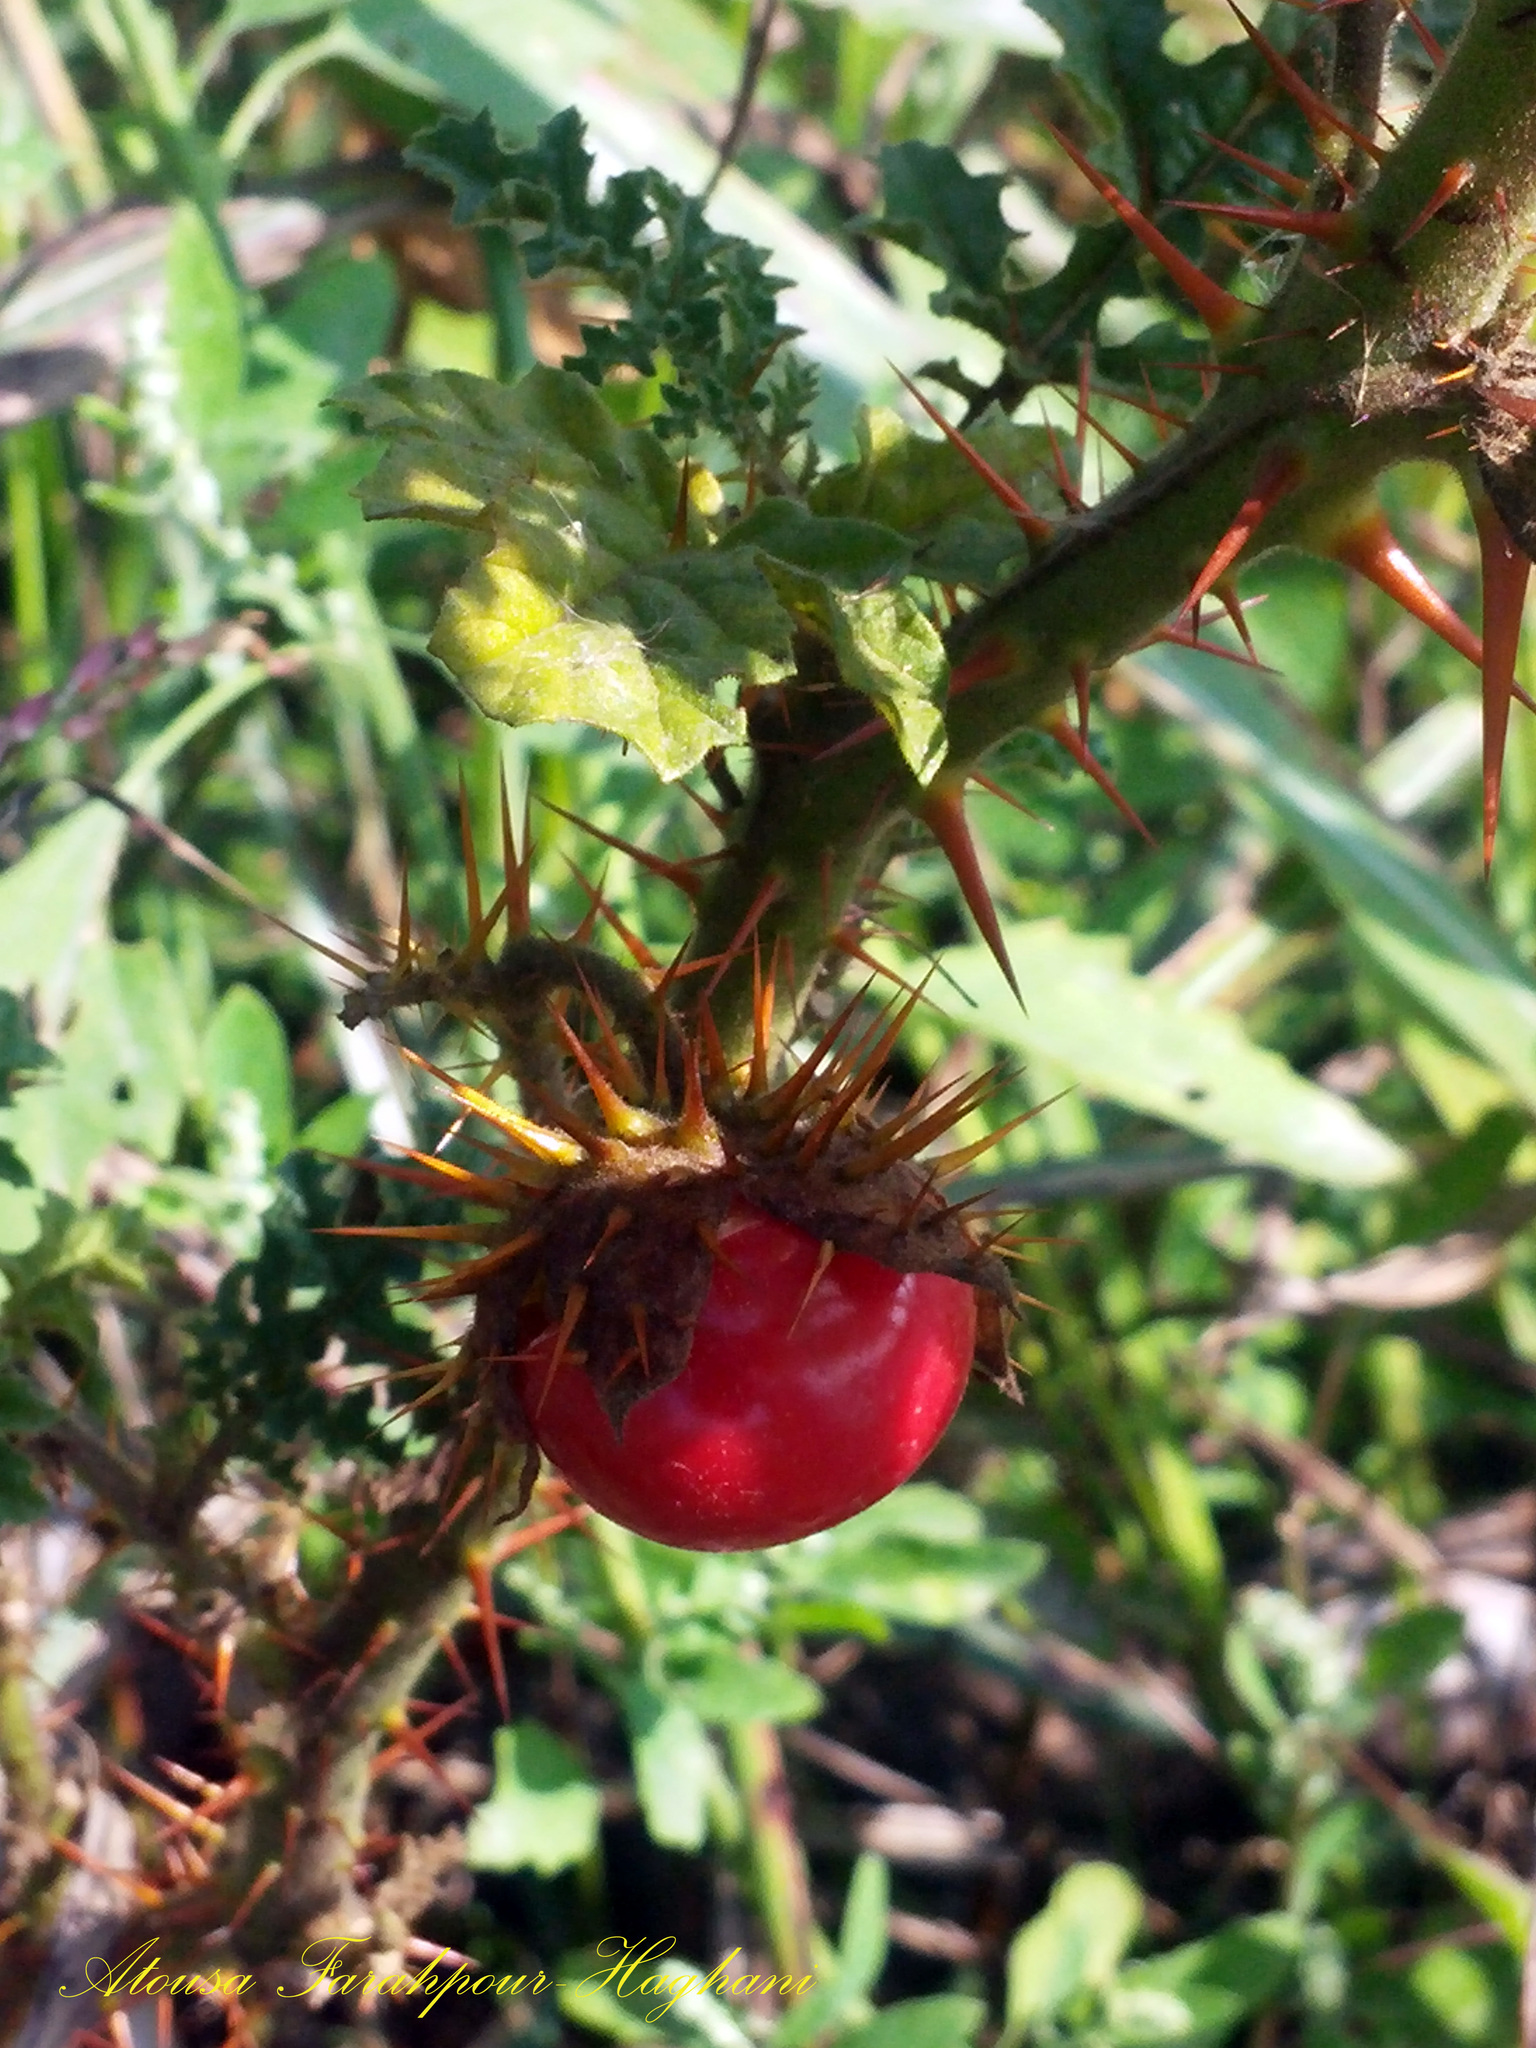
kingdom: Plantae
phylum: Tracheophyta
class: Magnoliopsida
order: Solanales
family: Solanaceae
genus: Solanum
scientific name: Solanum sisymbriifolium
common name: Red buffalo-bur
